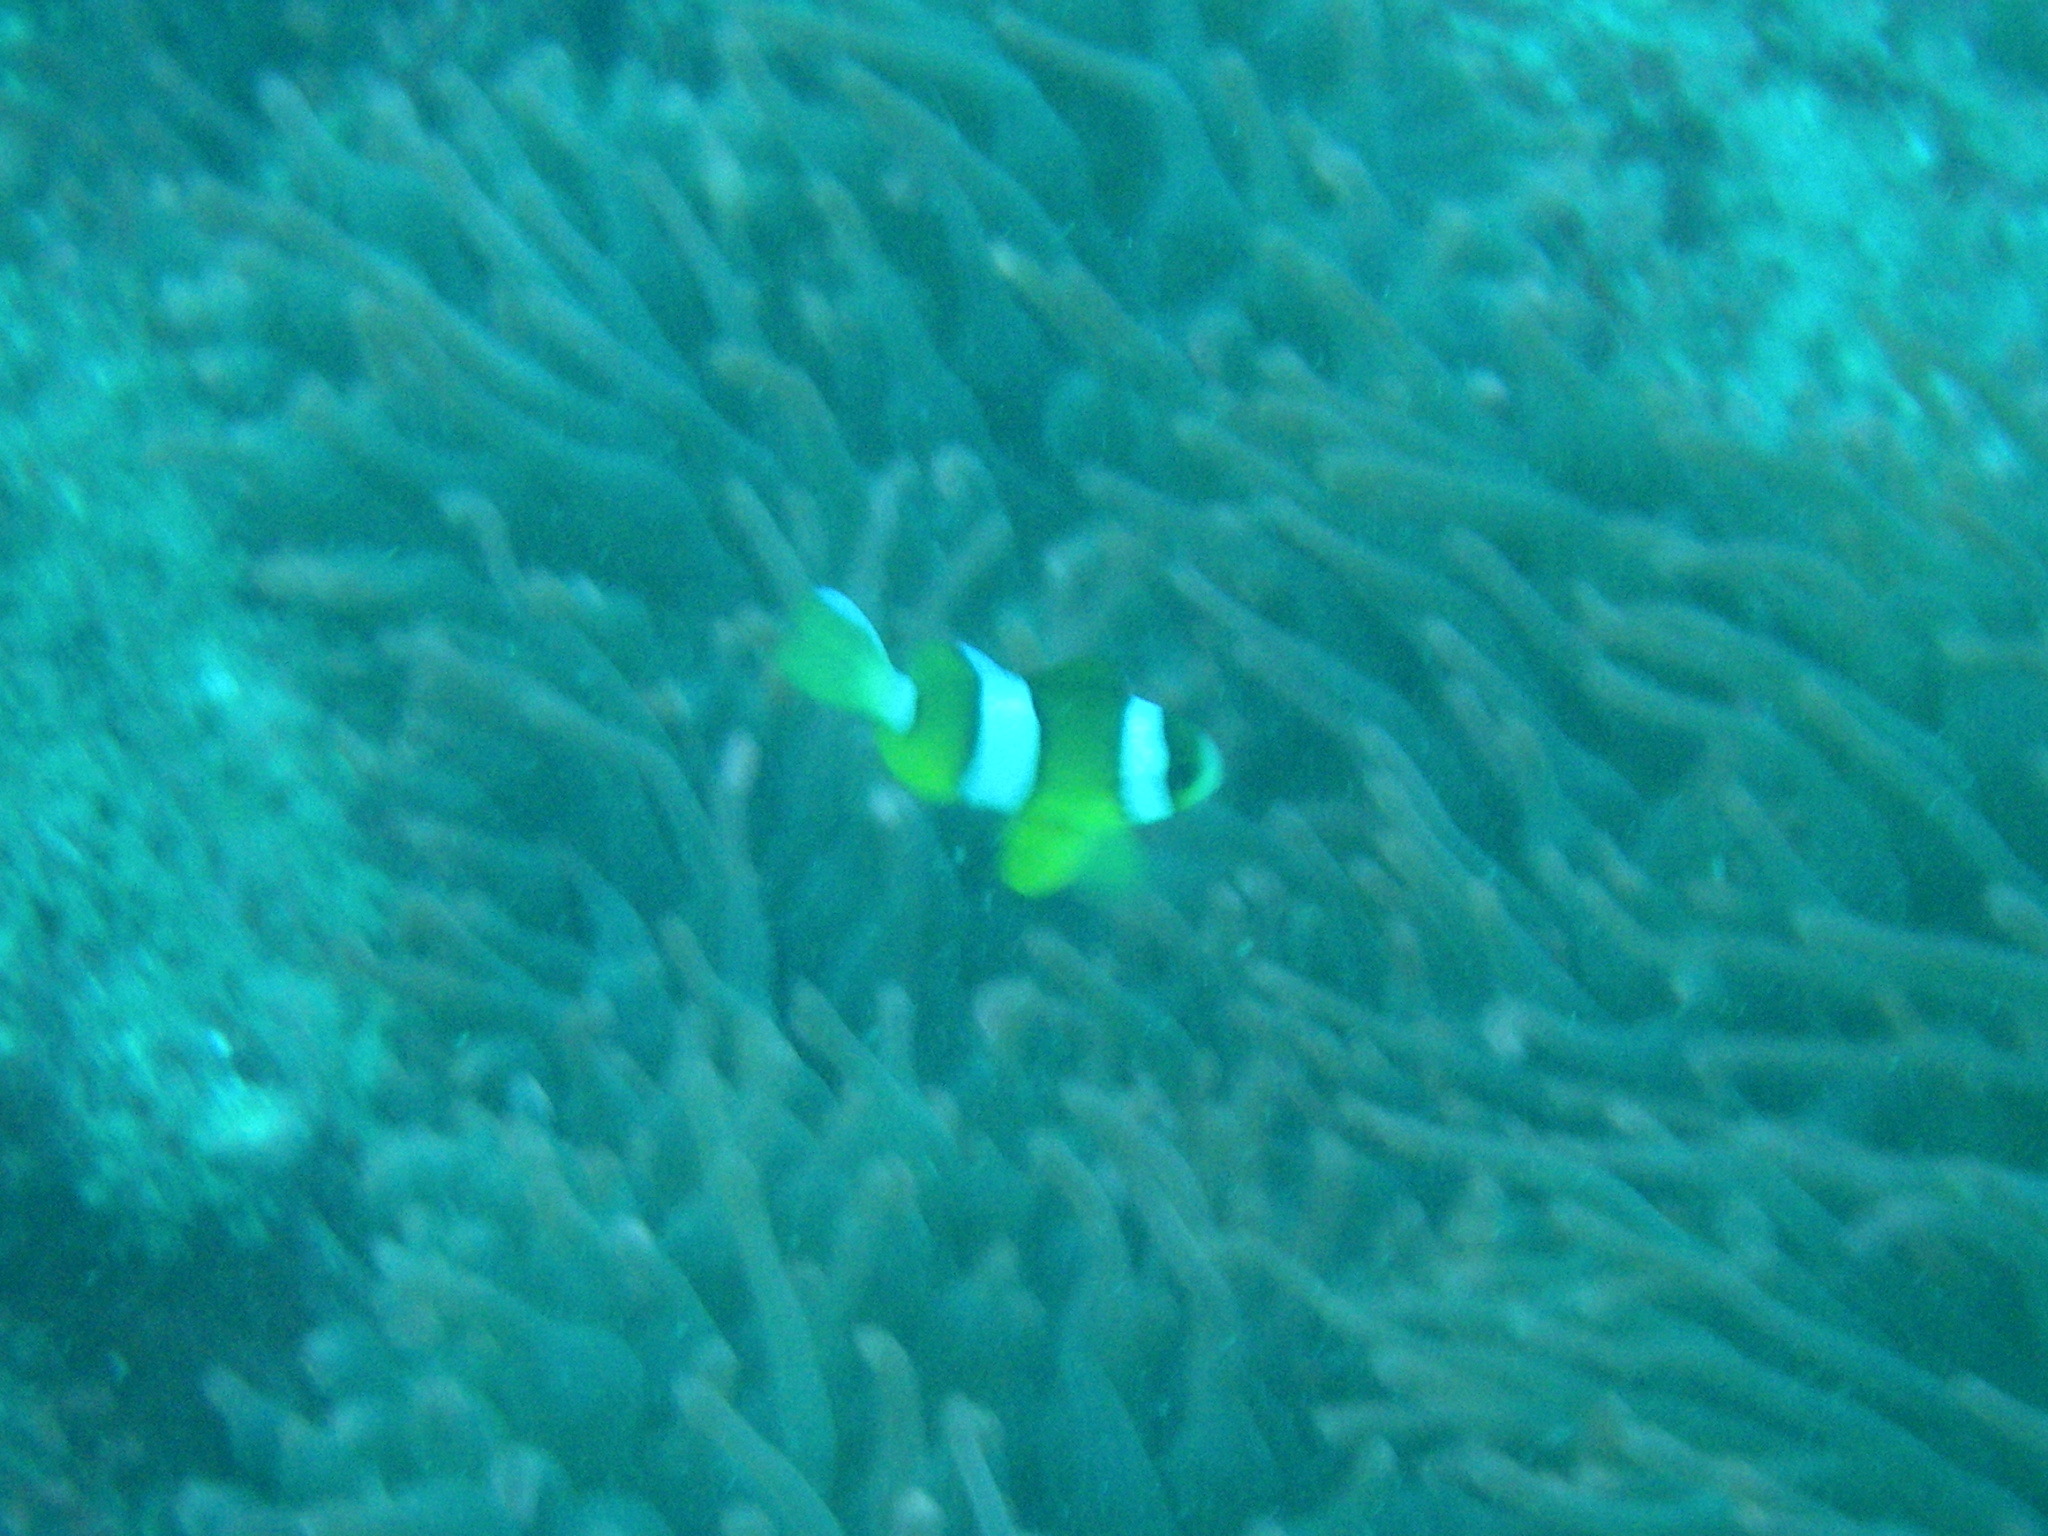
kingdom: Animalia
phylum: Chordata
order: Perciformes
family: Pomacentridae
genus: Amphiprion
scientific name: Amphiprion clarkii
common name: Clark's anemonefish
